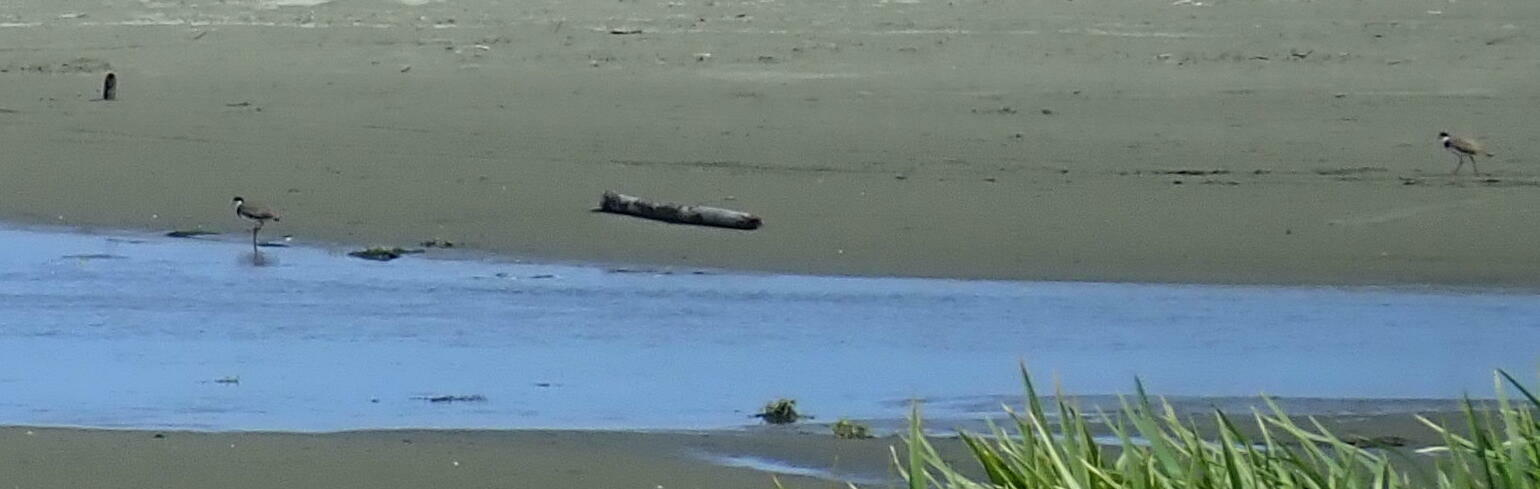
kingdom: Animalia
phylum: Chordata
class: Aves
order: Charadriiformes
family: Charadriidae
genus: Vanellus
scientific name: Vanellus miles
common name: Masked lapwing
